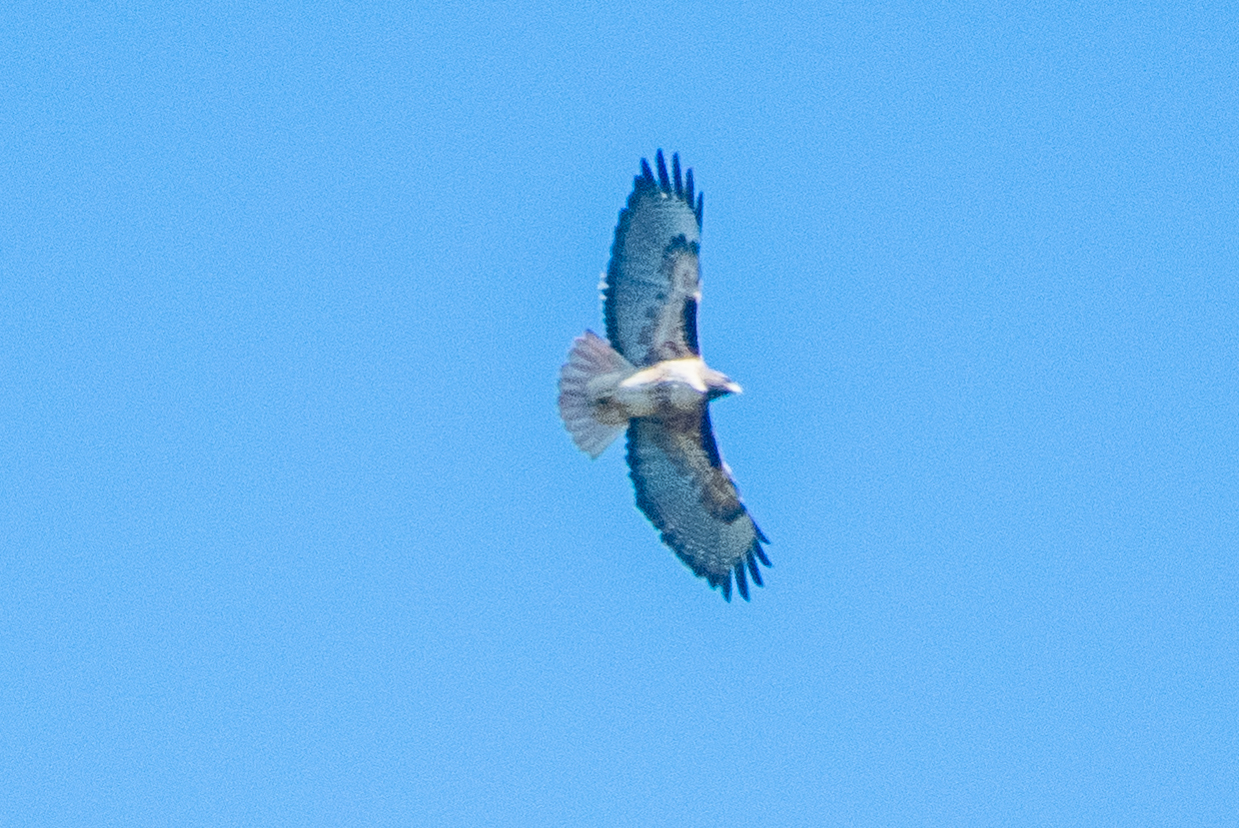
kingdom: Animalia
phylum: Chordata
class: Aves
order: Accipitriformes
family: Accipitridae
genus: Buteo
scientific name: Buteo jamaicensis
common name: Red-tailed hawk
